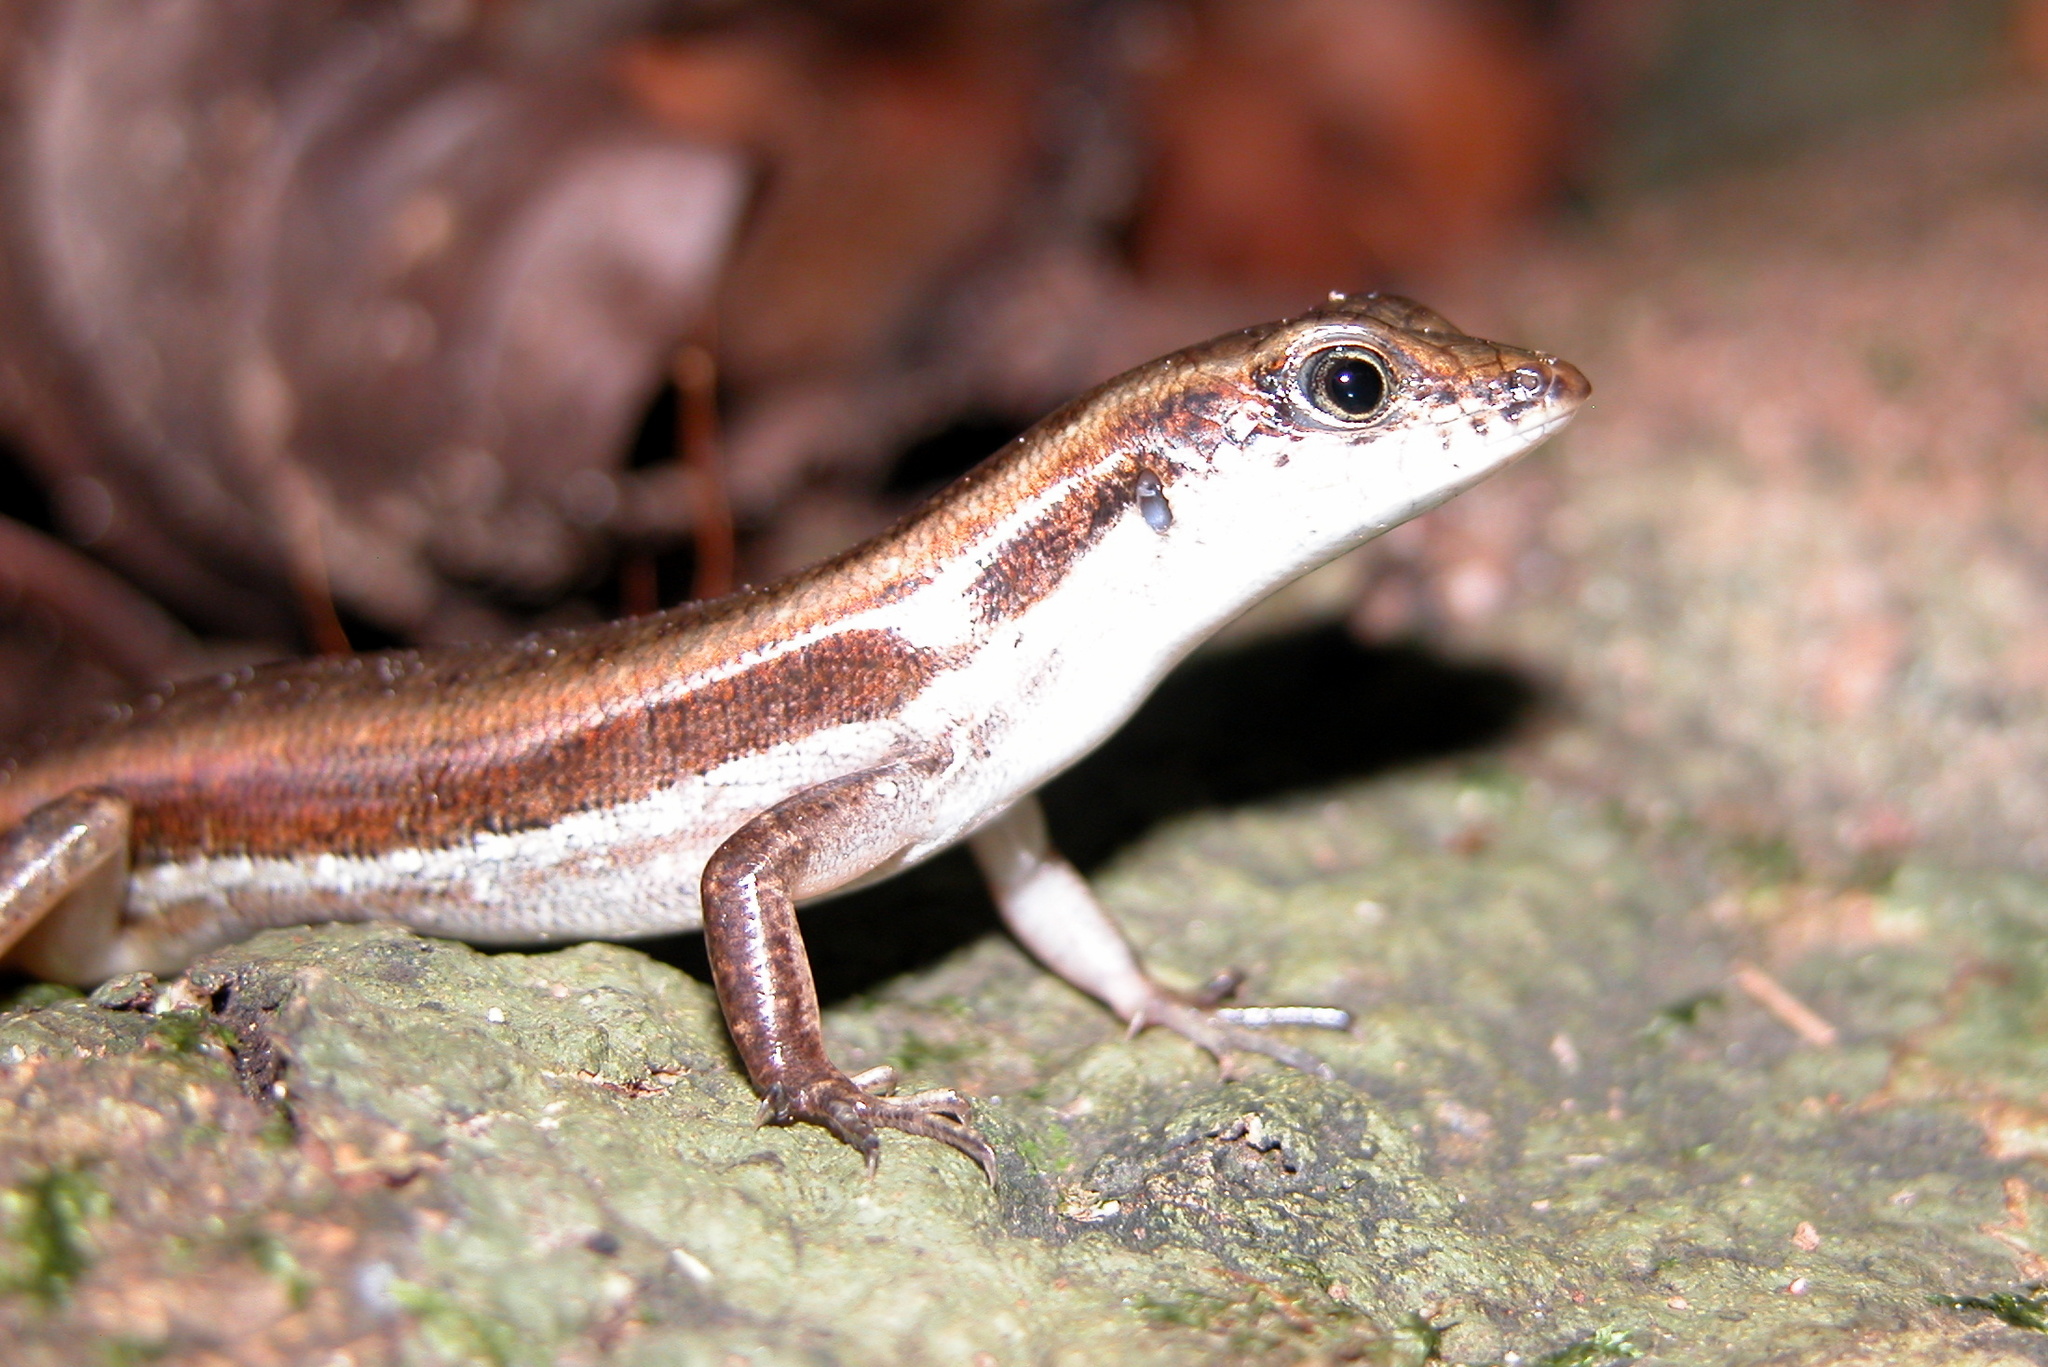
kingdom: Animalia
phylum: Chordata
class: Squamata
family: Scincidae
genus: Sphenomorphus
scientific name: Sphenomorphus dussumieri
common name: Dussumier's forest skink
